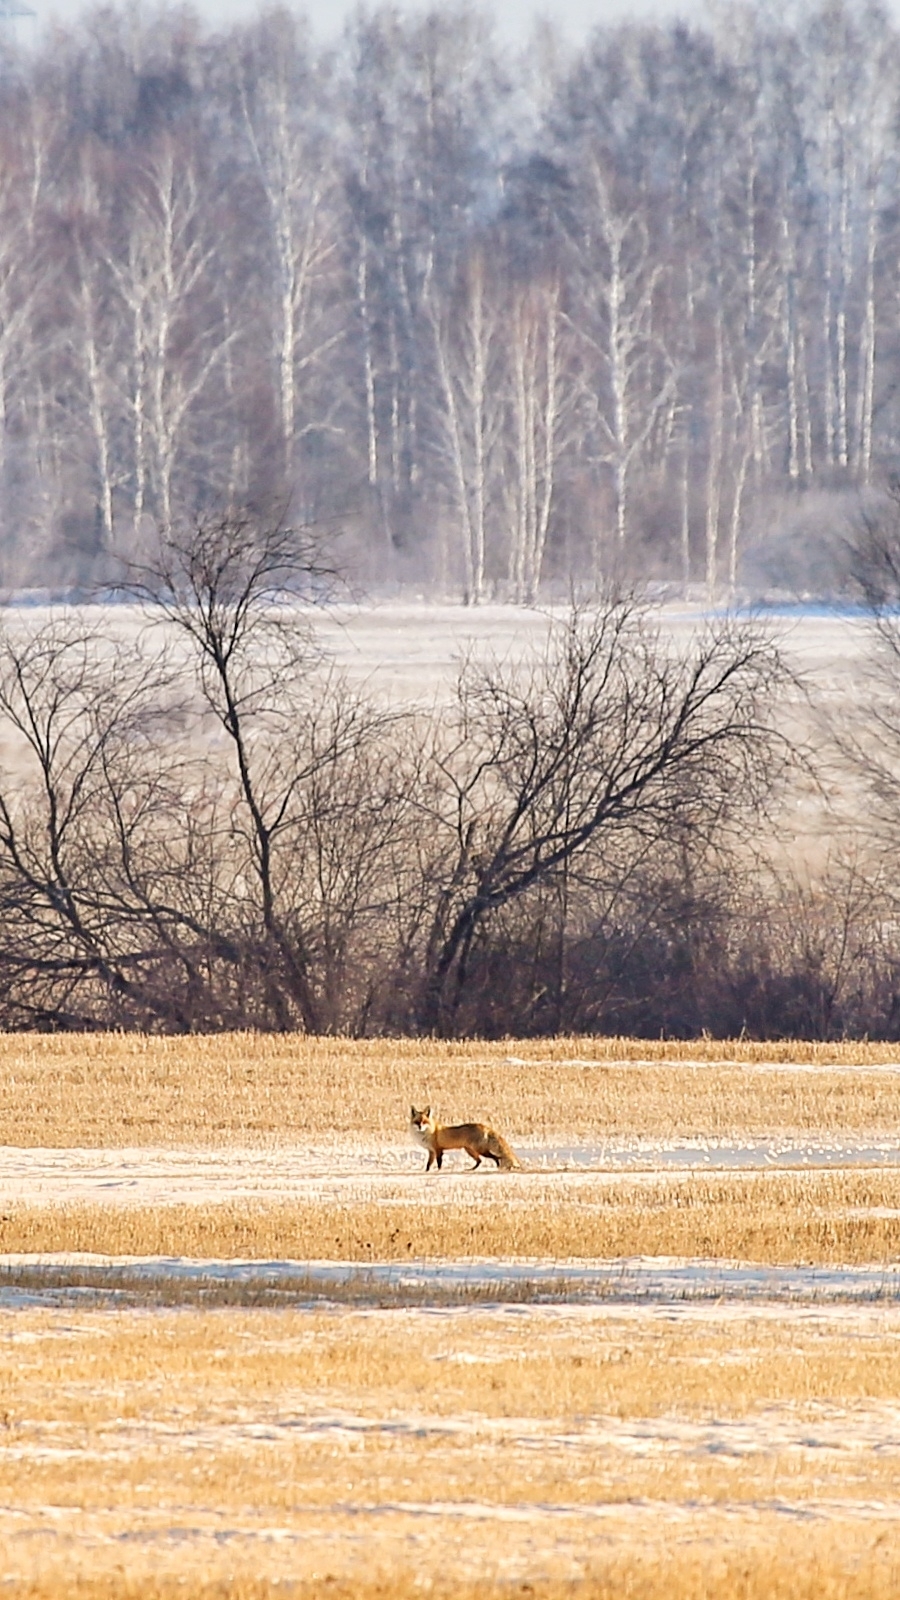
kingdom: Animalia
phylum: Chordata
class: Mammalia
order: Carnivora
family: Canidae
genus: Vulpes
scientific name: Vulpes vulpes
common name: Red fox
